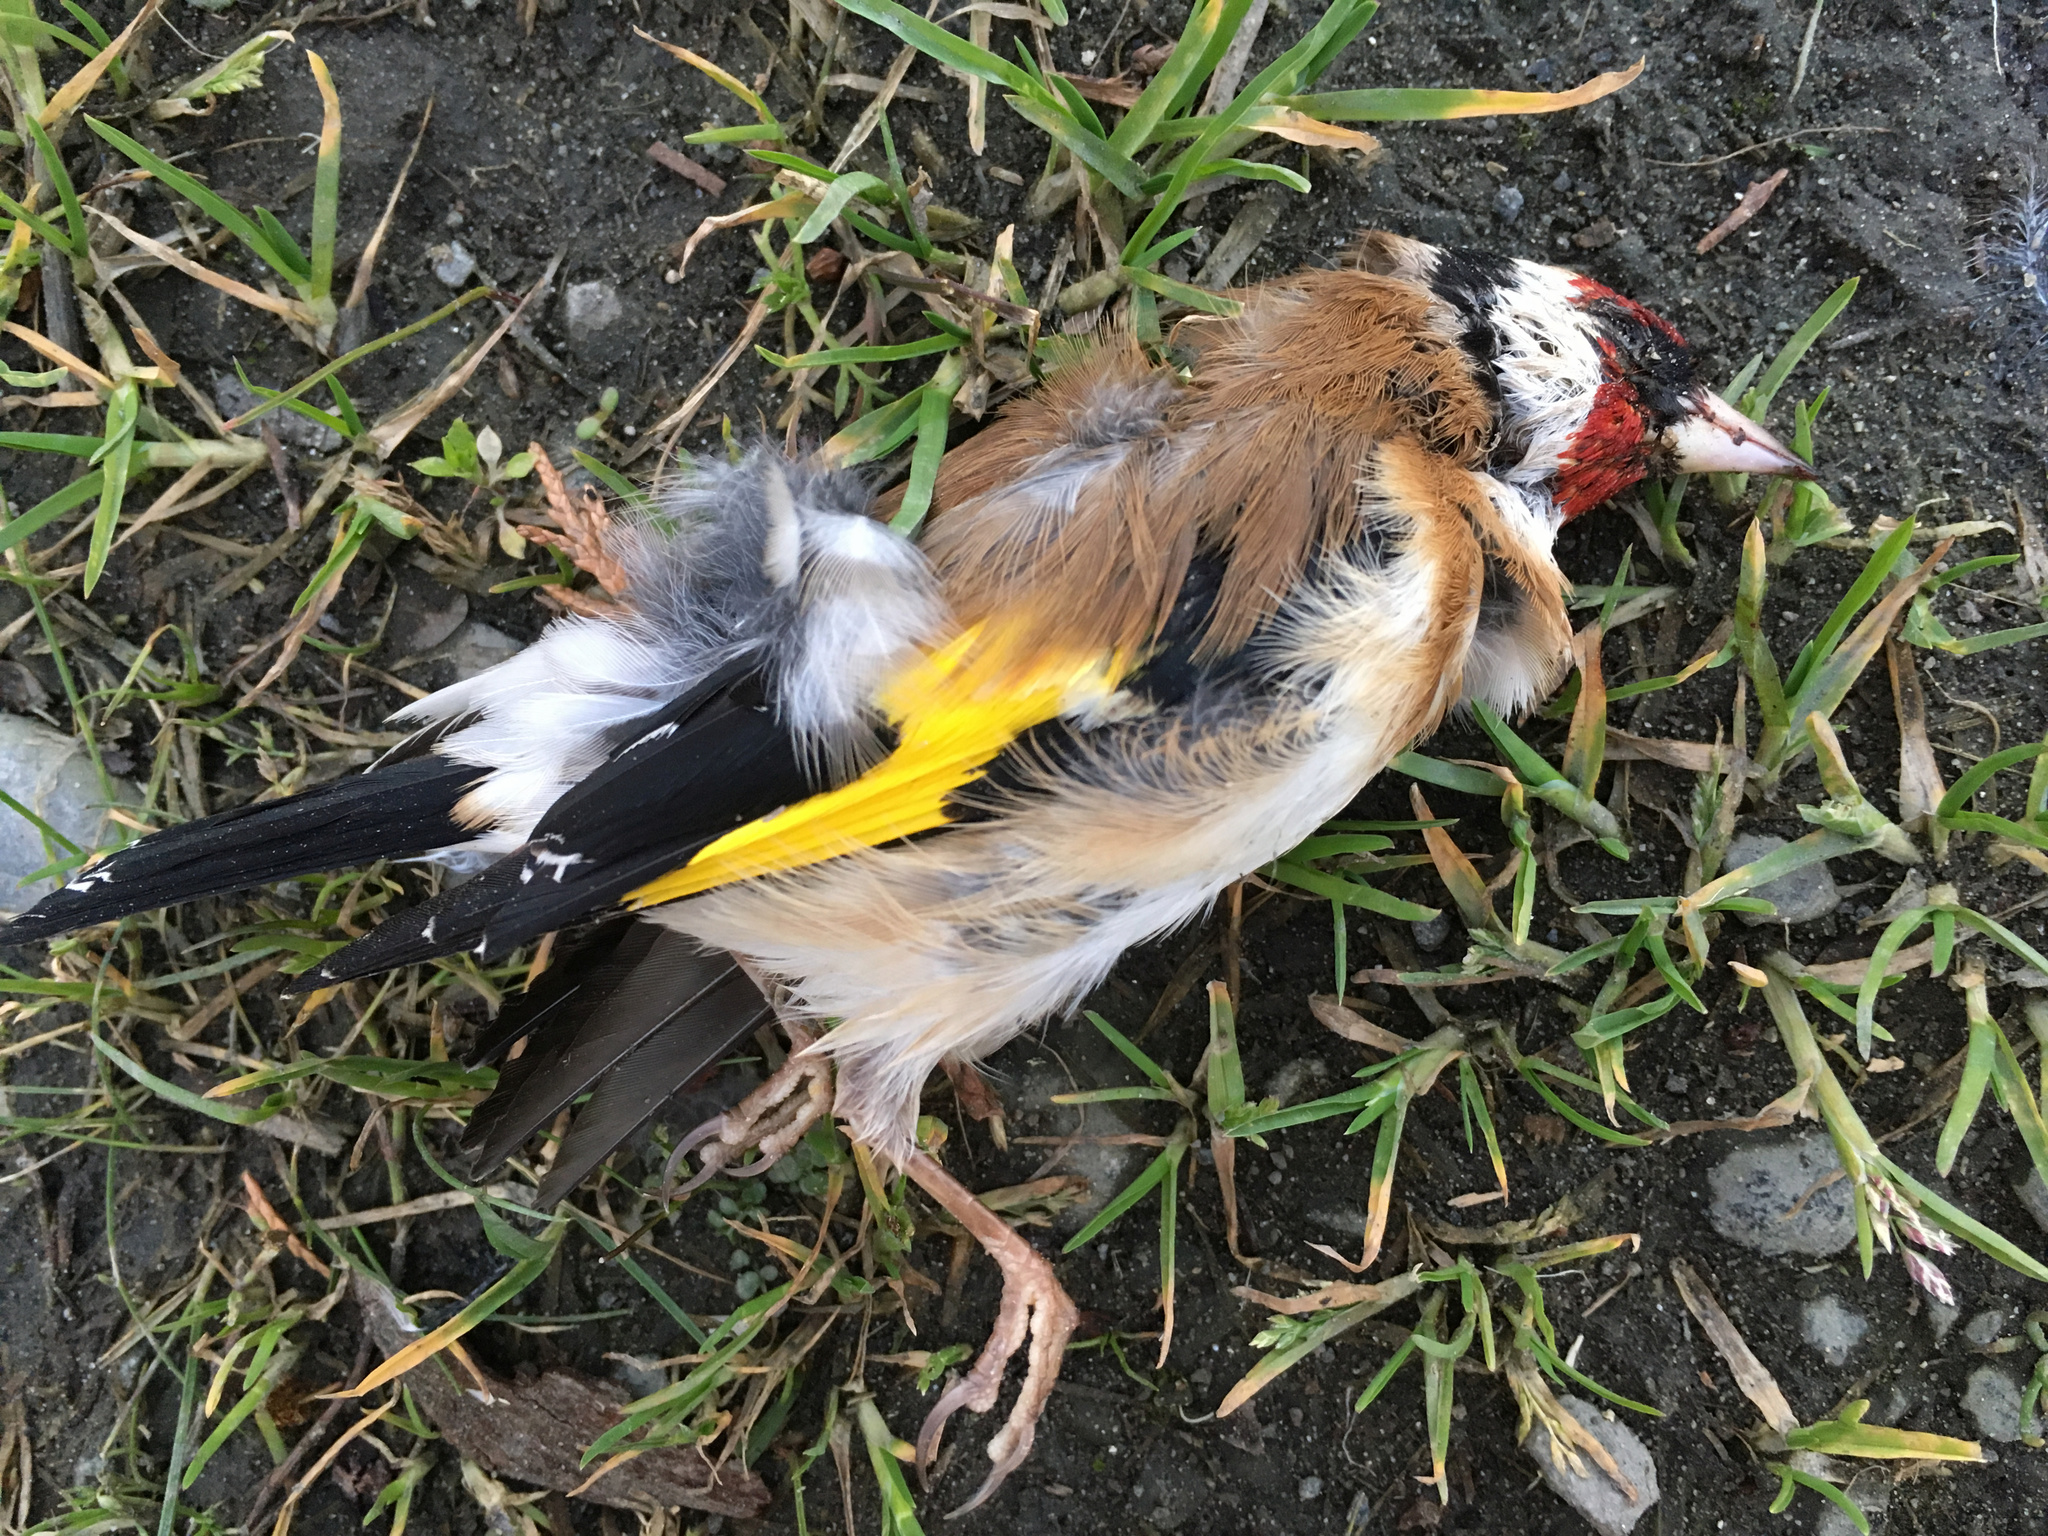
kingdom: Animalia
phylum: Chordata
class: Aves
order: Passeriformes
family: Fringillidae
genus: Carduelis
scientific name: Carduelis carduelis
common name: European goldfinch
